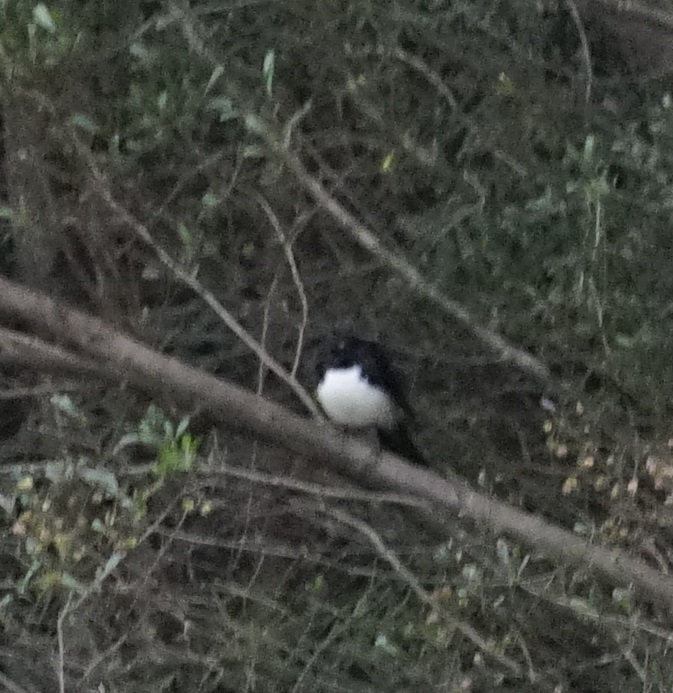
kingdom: Animalia
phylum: Chordata
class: Aves
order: Passeriformes
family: Rhipiduridae
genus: Rhipidura
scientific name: Rhipidura leucophrys
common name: Willie wagtail
